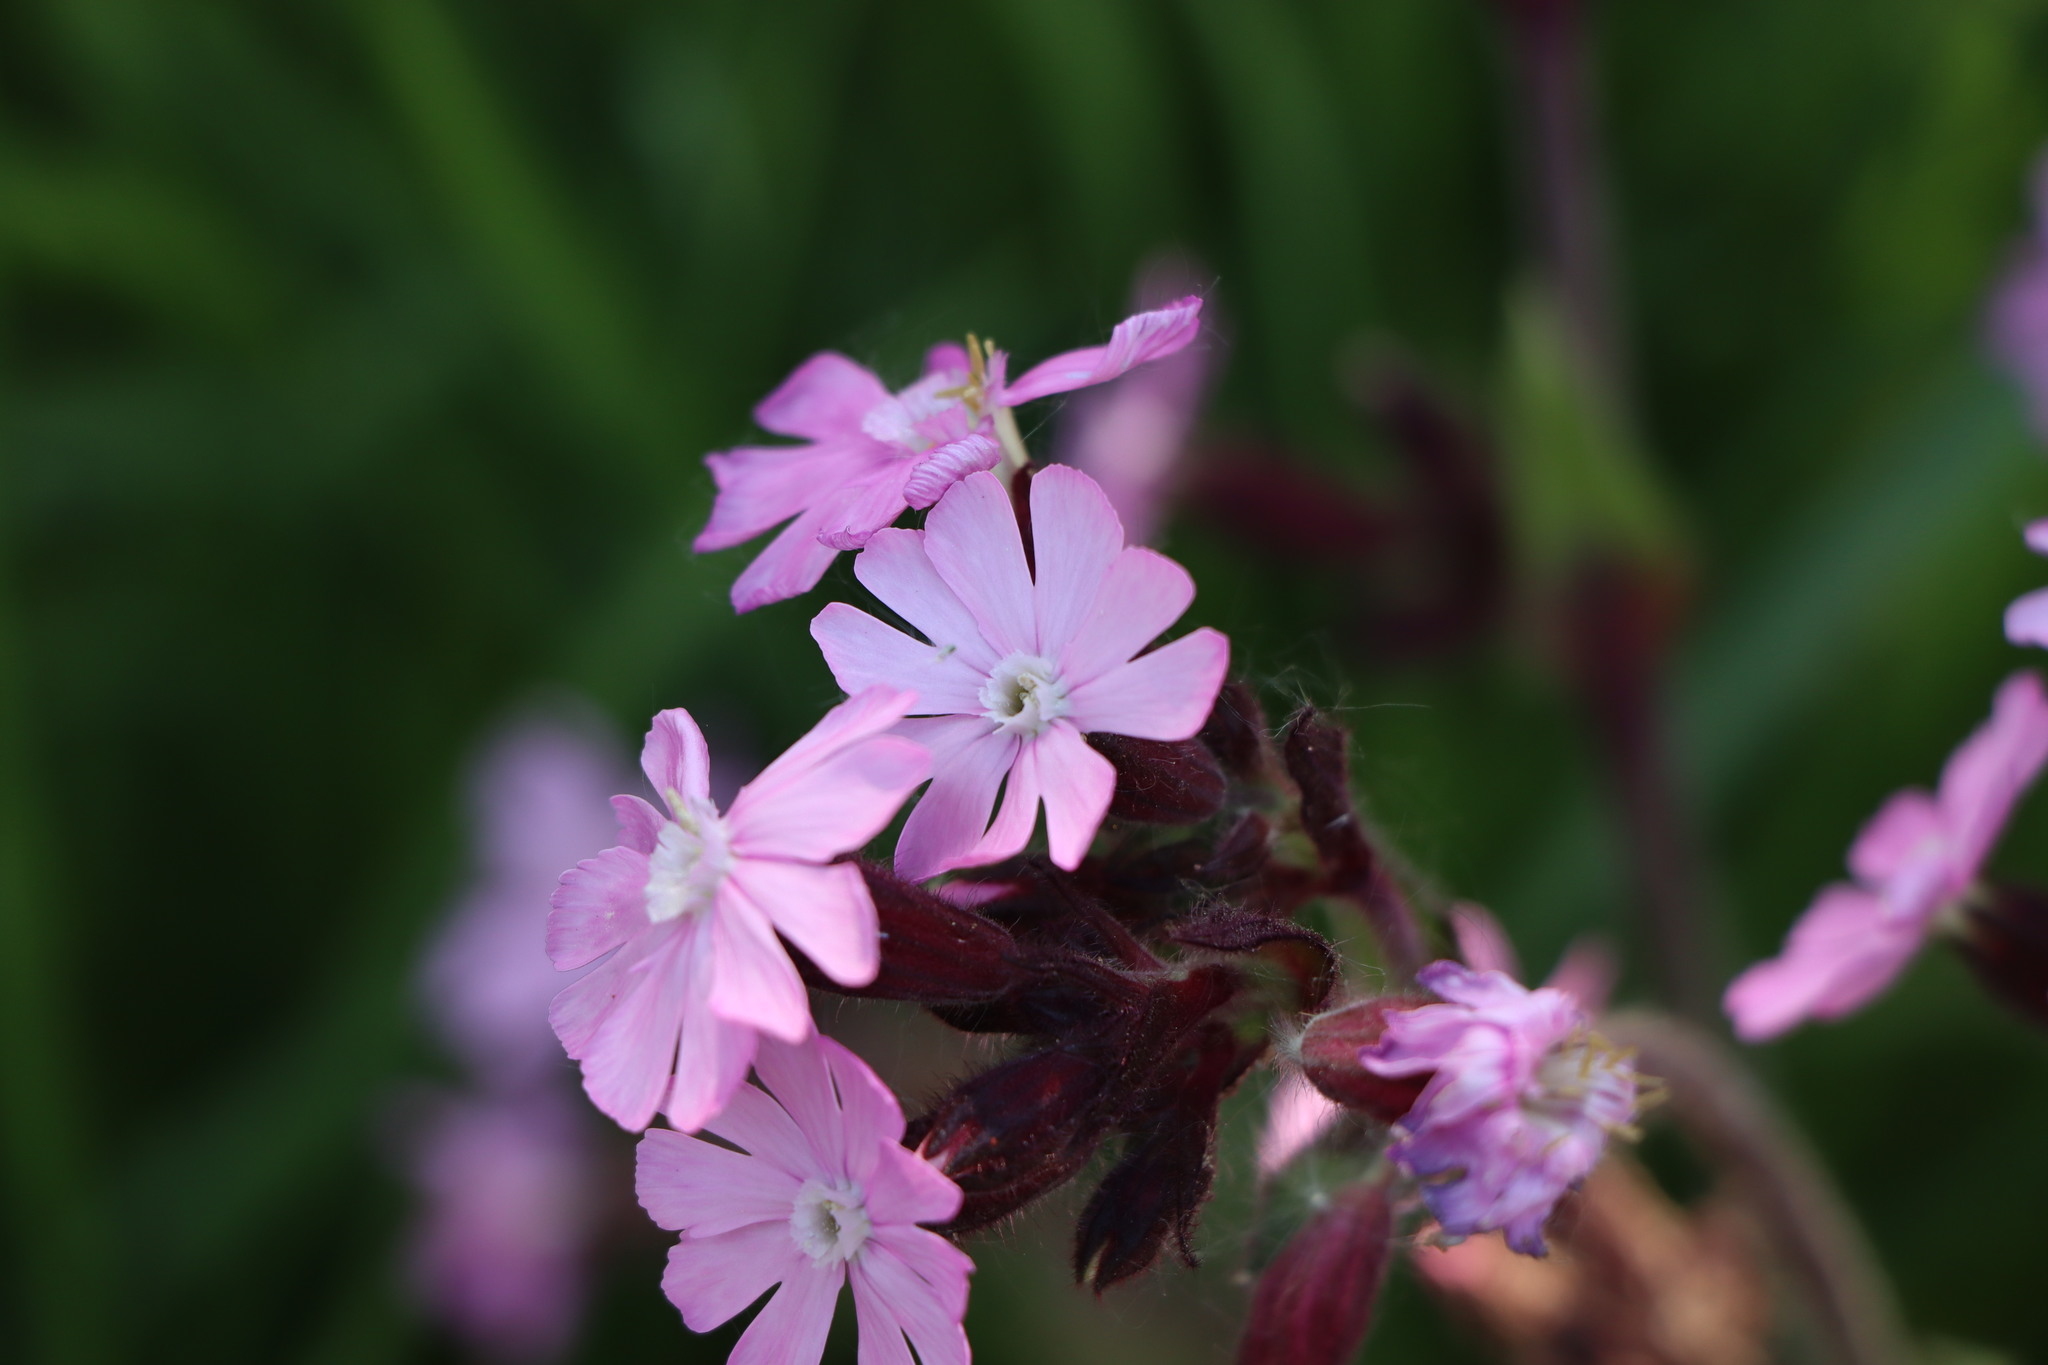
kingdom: Plantae
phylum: Tracheophyta
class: Magnoliopsida
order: Caryophyllales
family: Caryophyllaceae
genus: Silene
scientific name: Silene dioica
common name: Red campion
